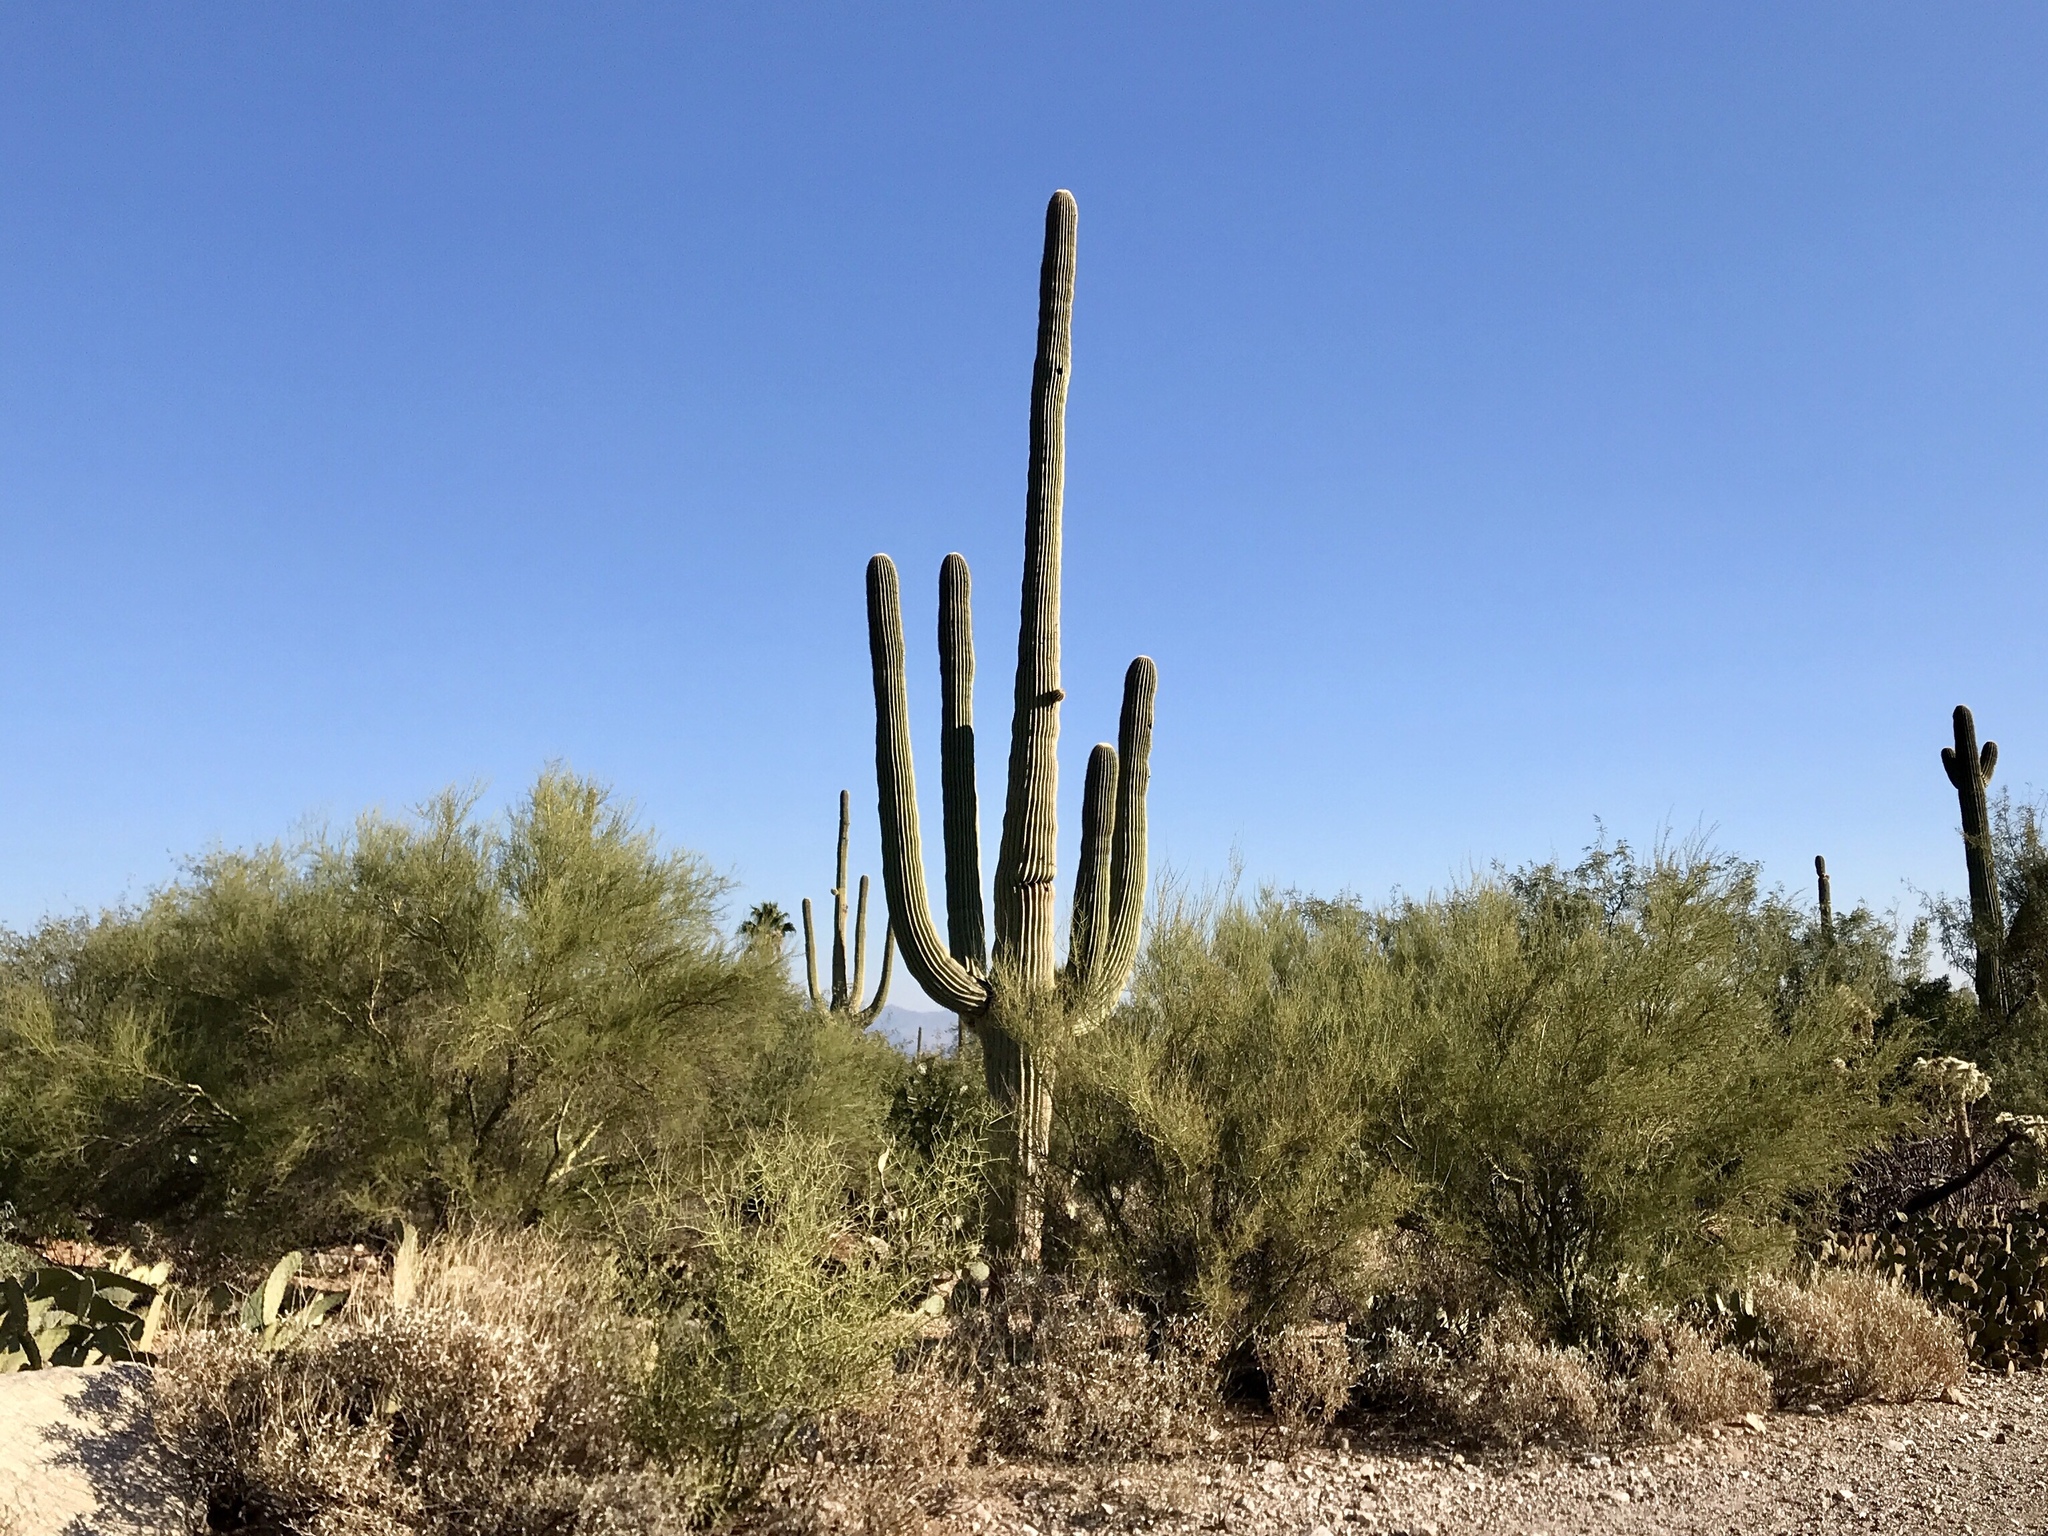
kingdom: Plantae
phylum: Tracheophyta
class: Magnoliopsida
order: Caryophyllales
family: Cactaceae
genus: Carnegiea
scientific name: Carnegiea gigantea
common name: Saguaro
